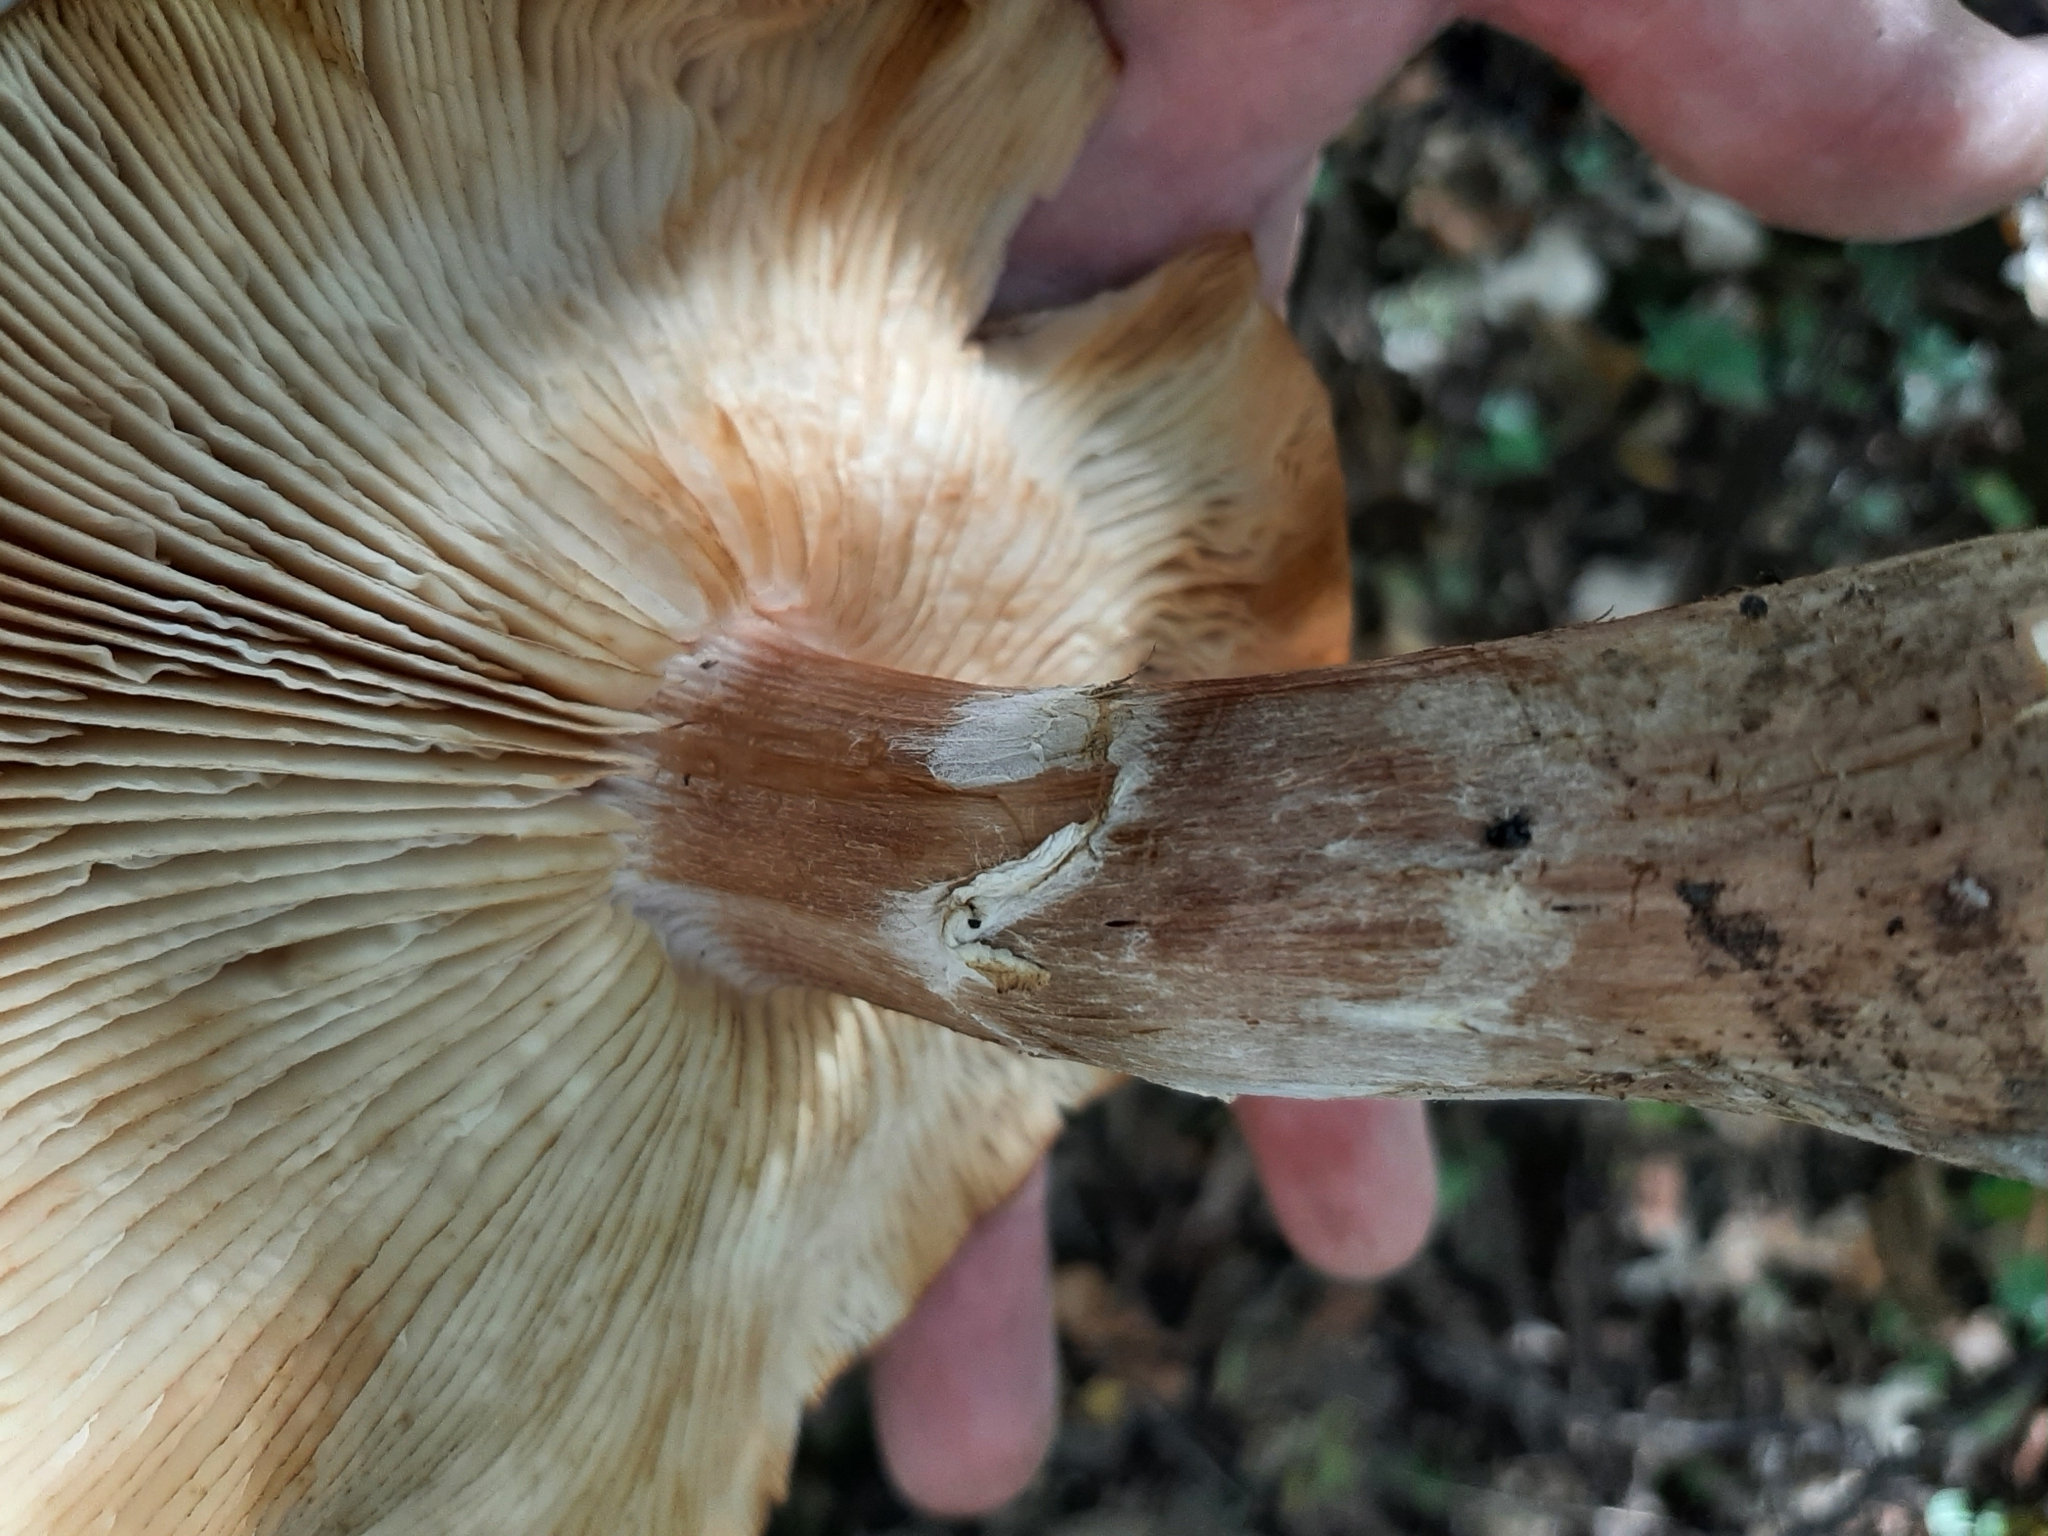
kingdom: Fungi
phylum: Basidiomycota
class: Agaricomycetes
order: Agaricales
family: Physalacriaceae
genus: Armillaria
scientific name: Armillaria gallica
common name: Bulbous honey fungus
